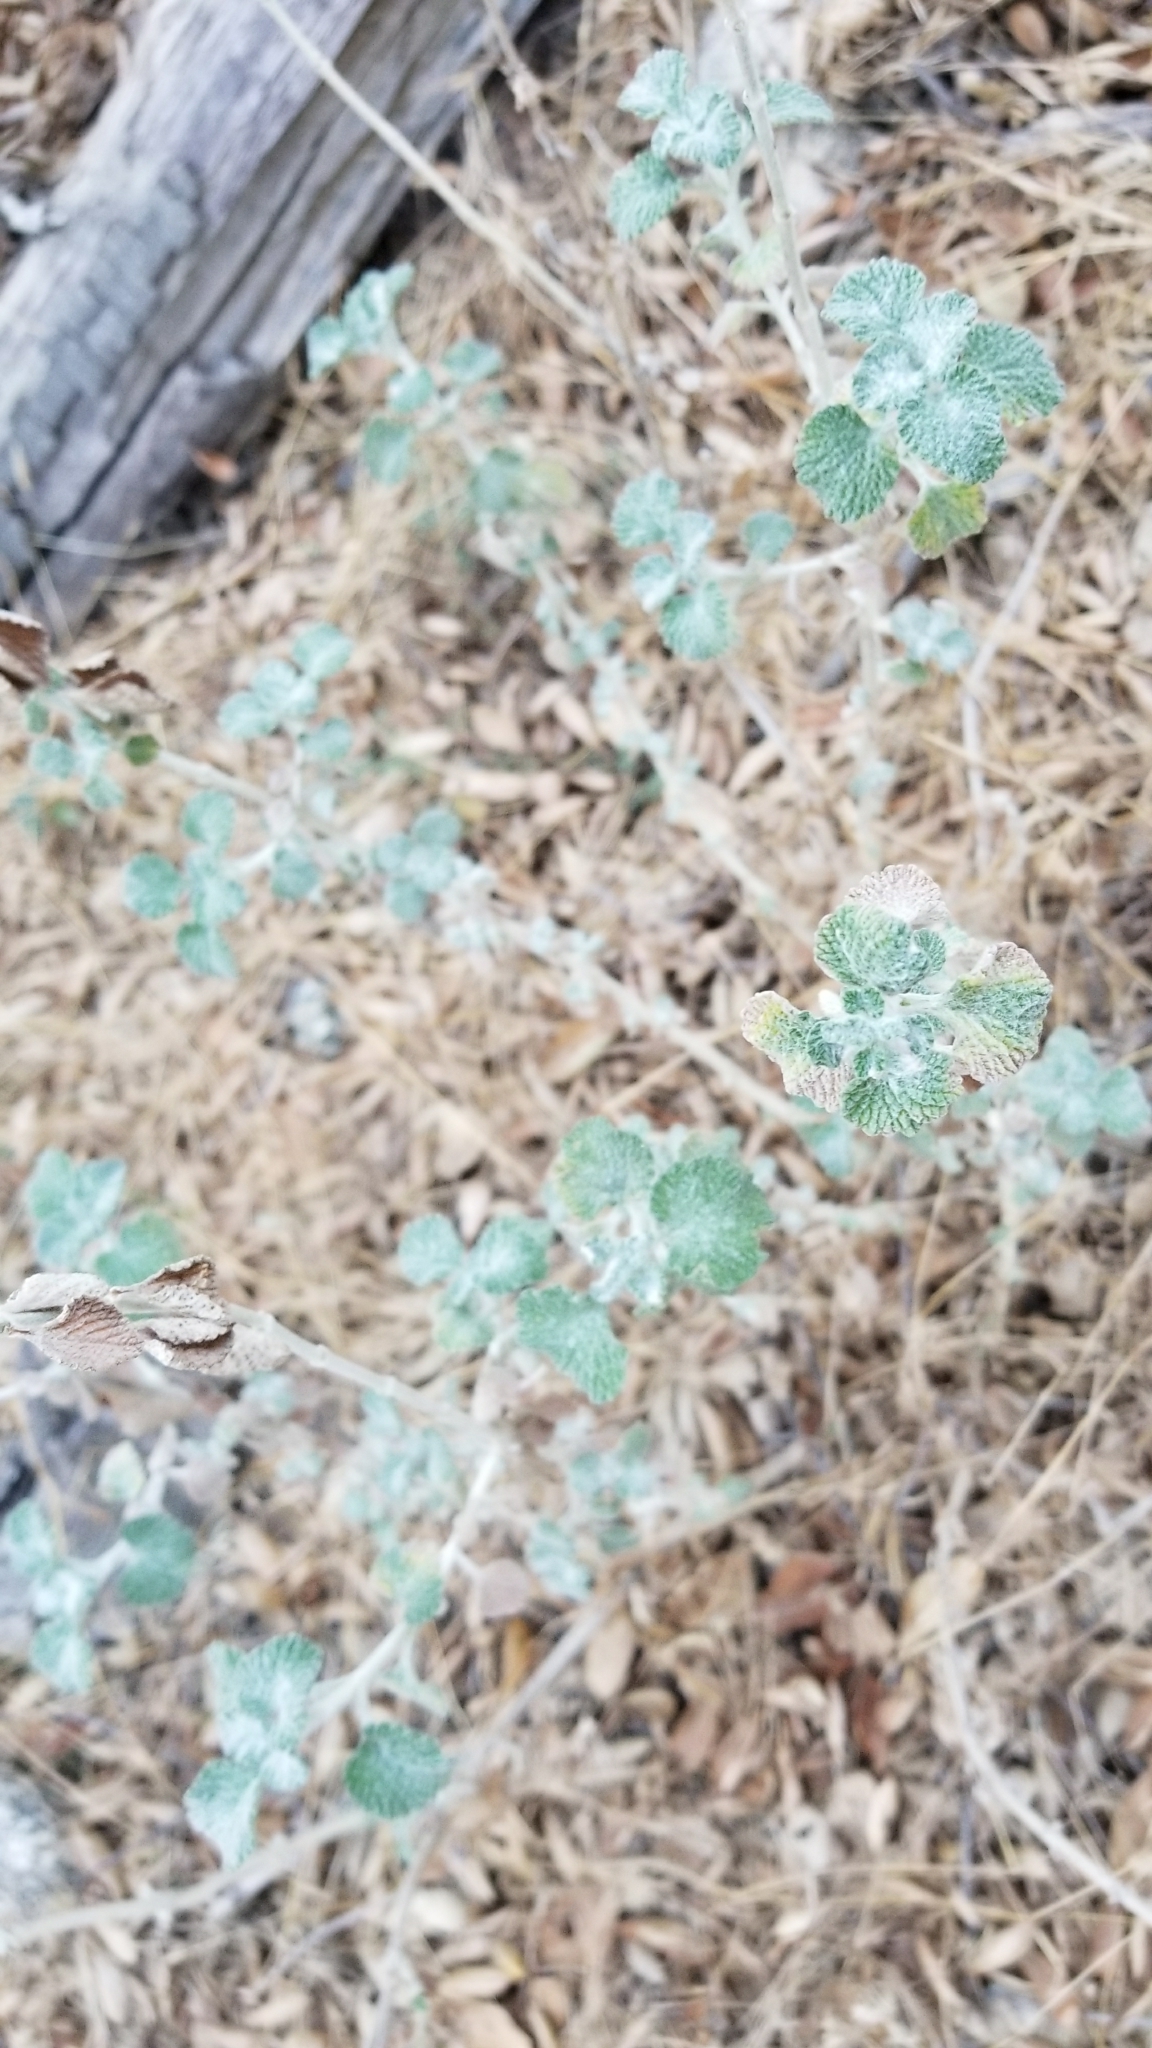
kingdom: Plantae
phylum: Tracheophyta
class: Magnoliopsida
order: Lamiales
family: Lamiaceae
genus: Marrubium
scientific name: Marrubium vulgare
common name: Horehound
